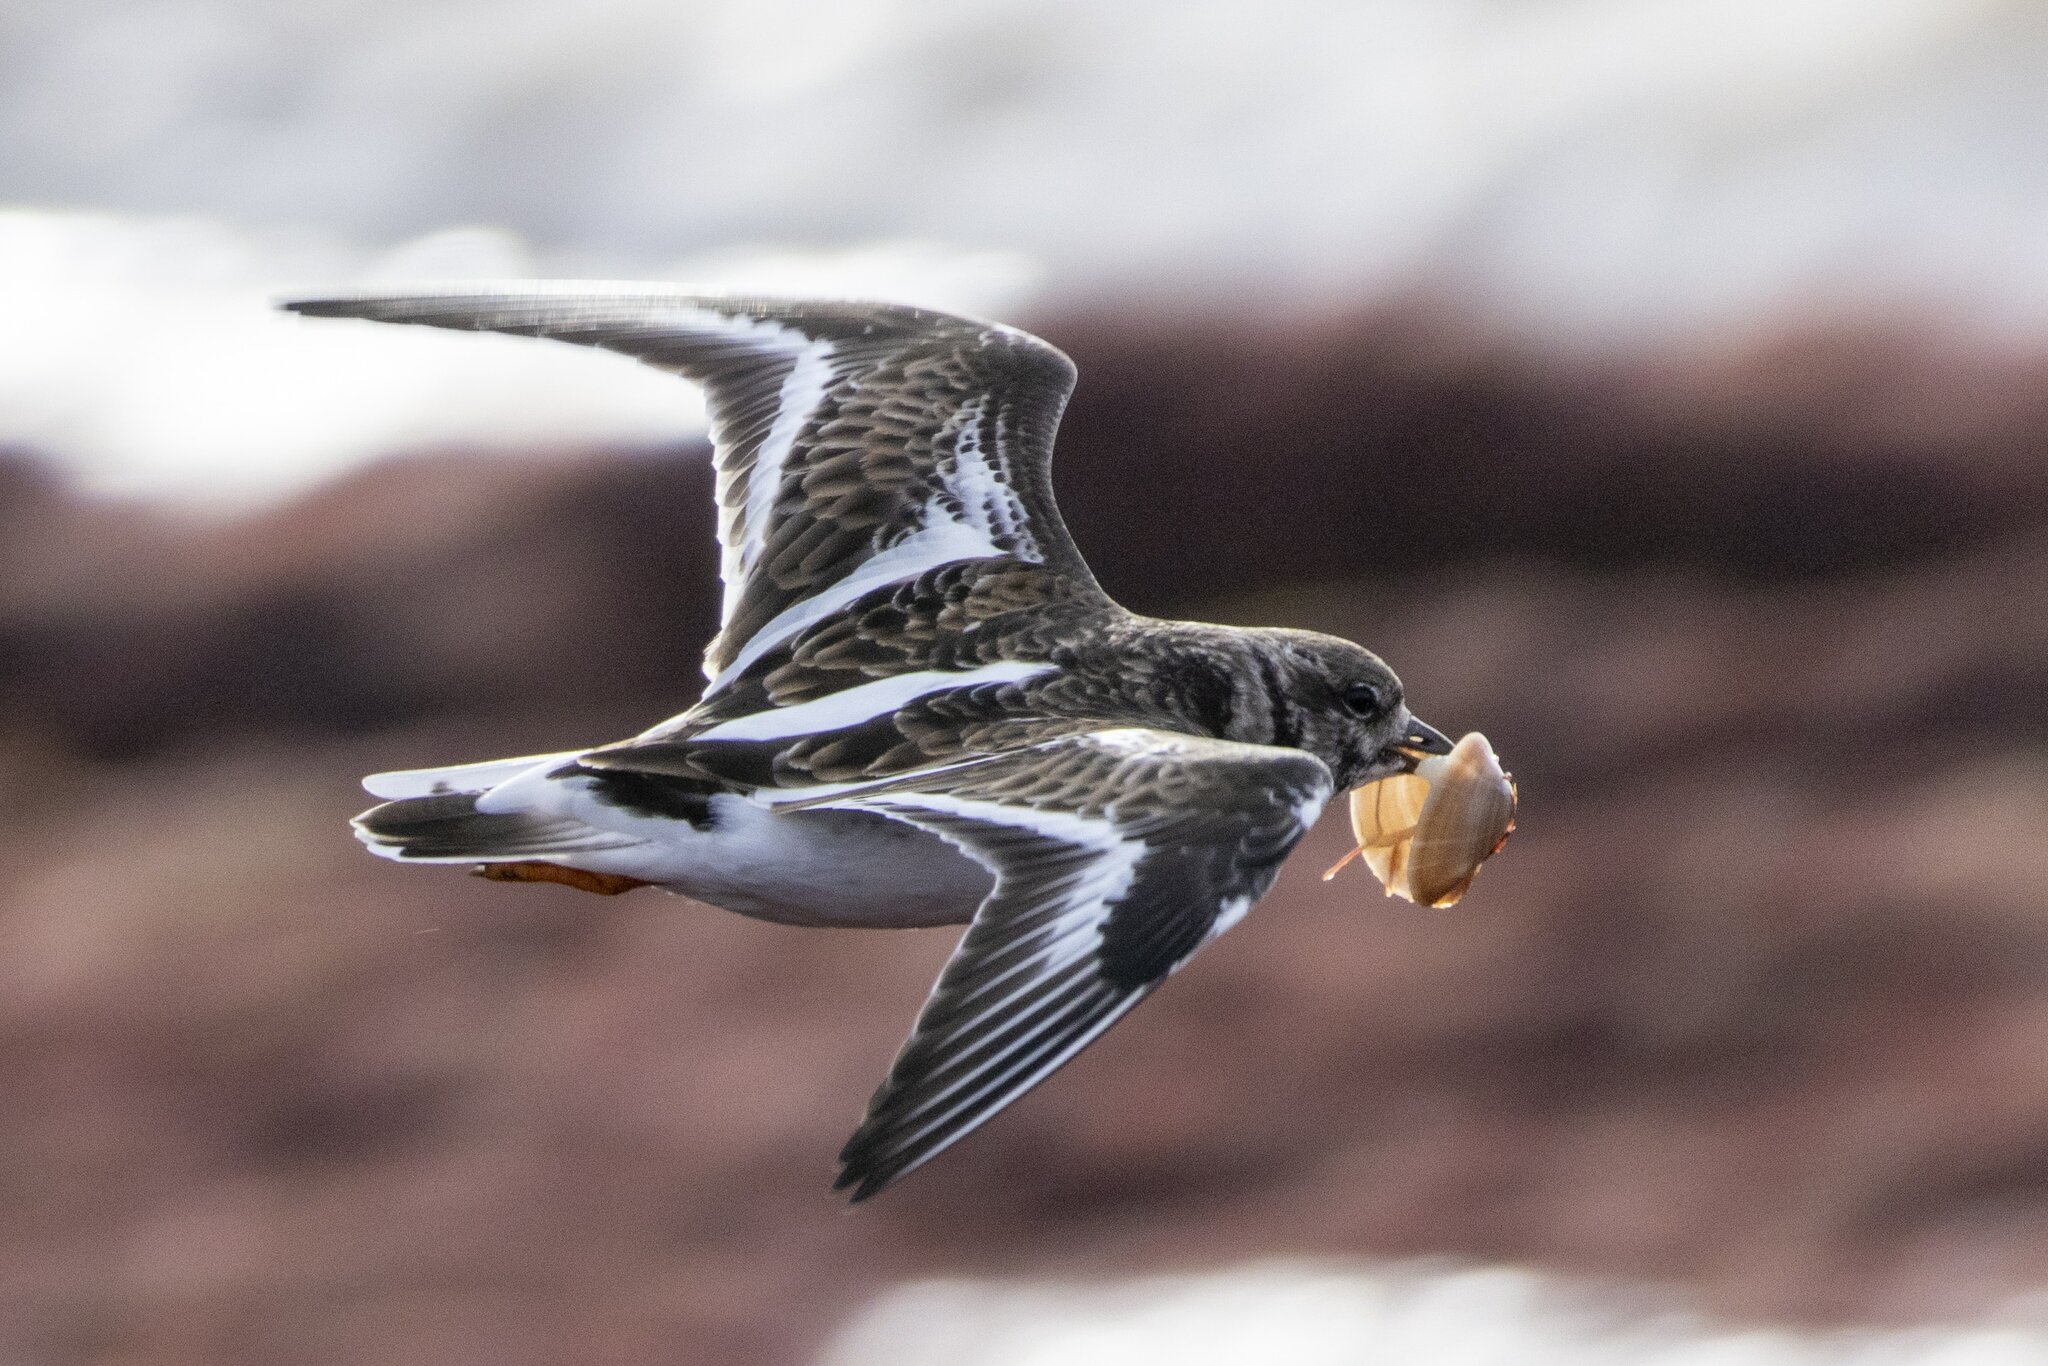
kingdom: Animalia
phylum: Chordata
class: Aves
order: Charadriiformes
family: Scolopacidae
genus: Arenaria
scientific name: Arenaria interpres
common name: Ruddy turnstone
